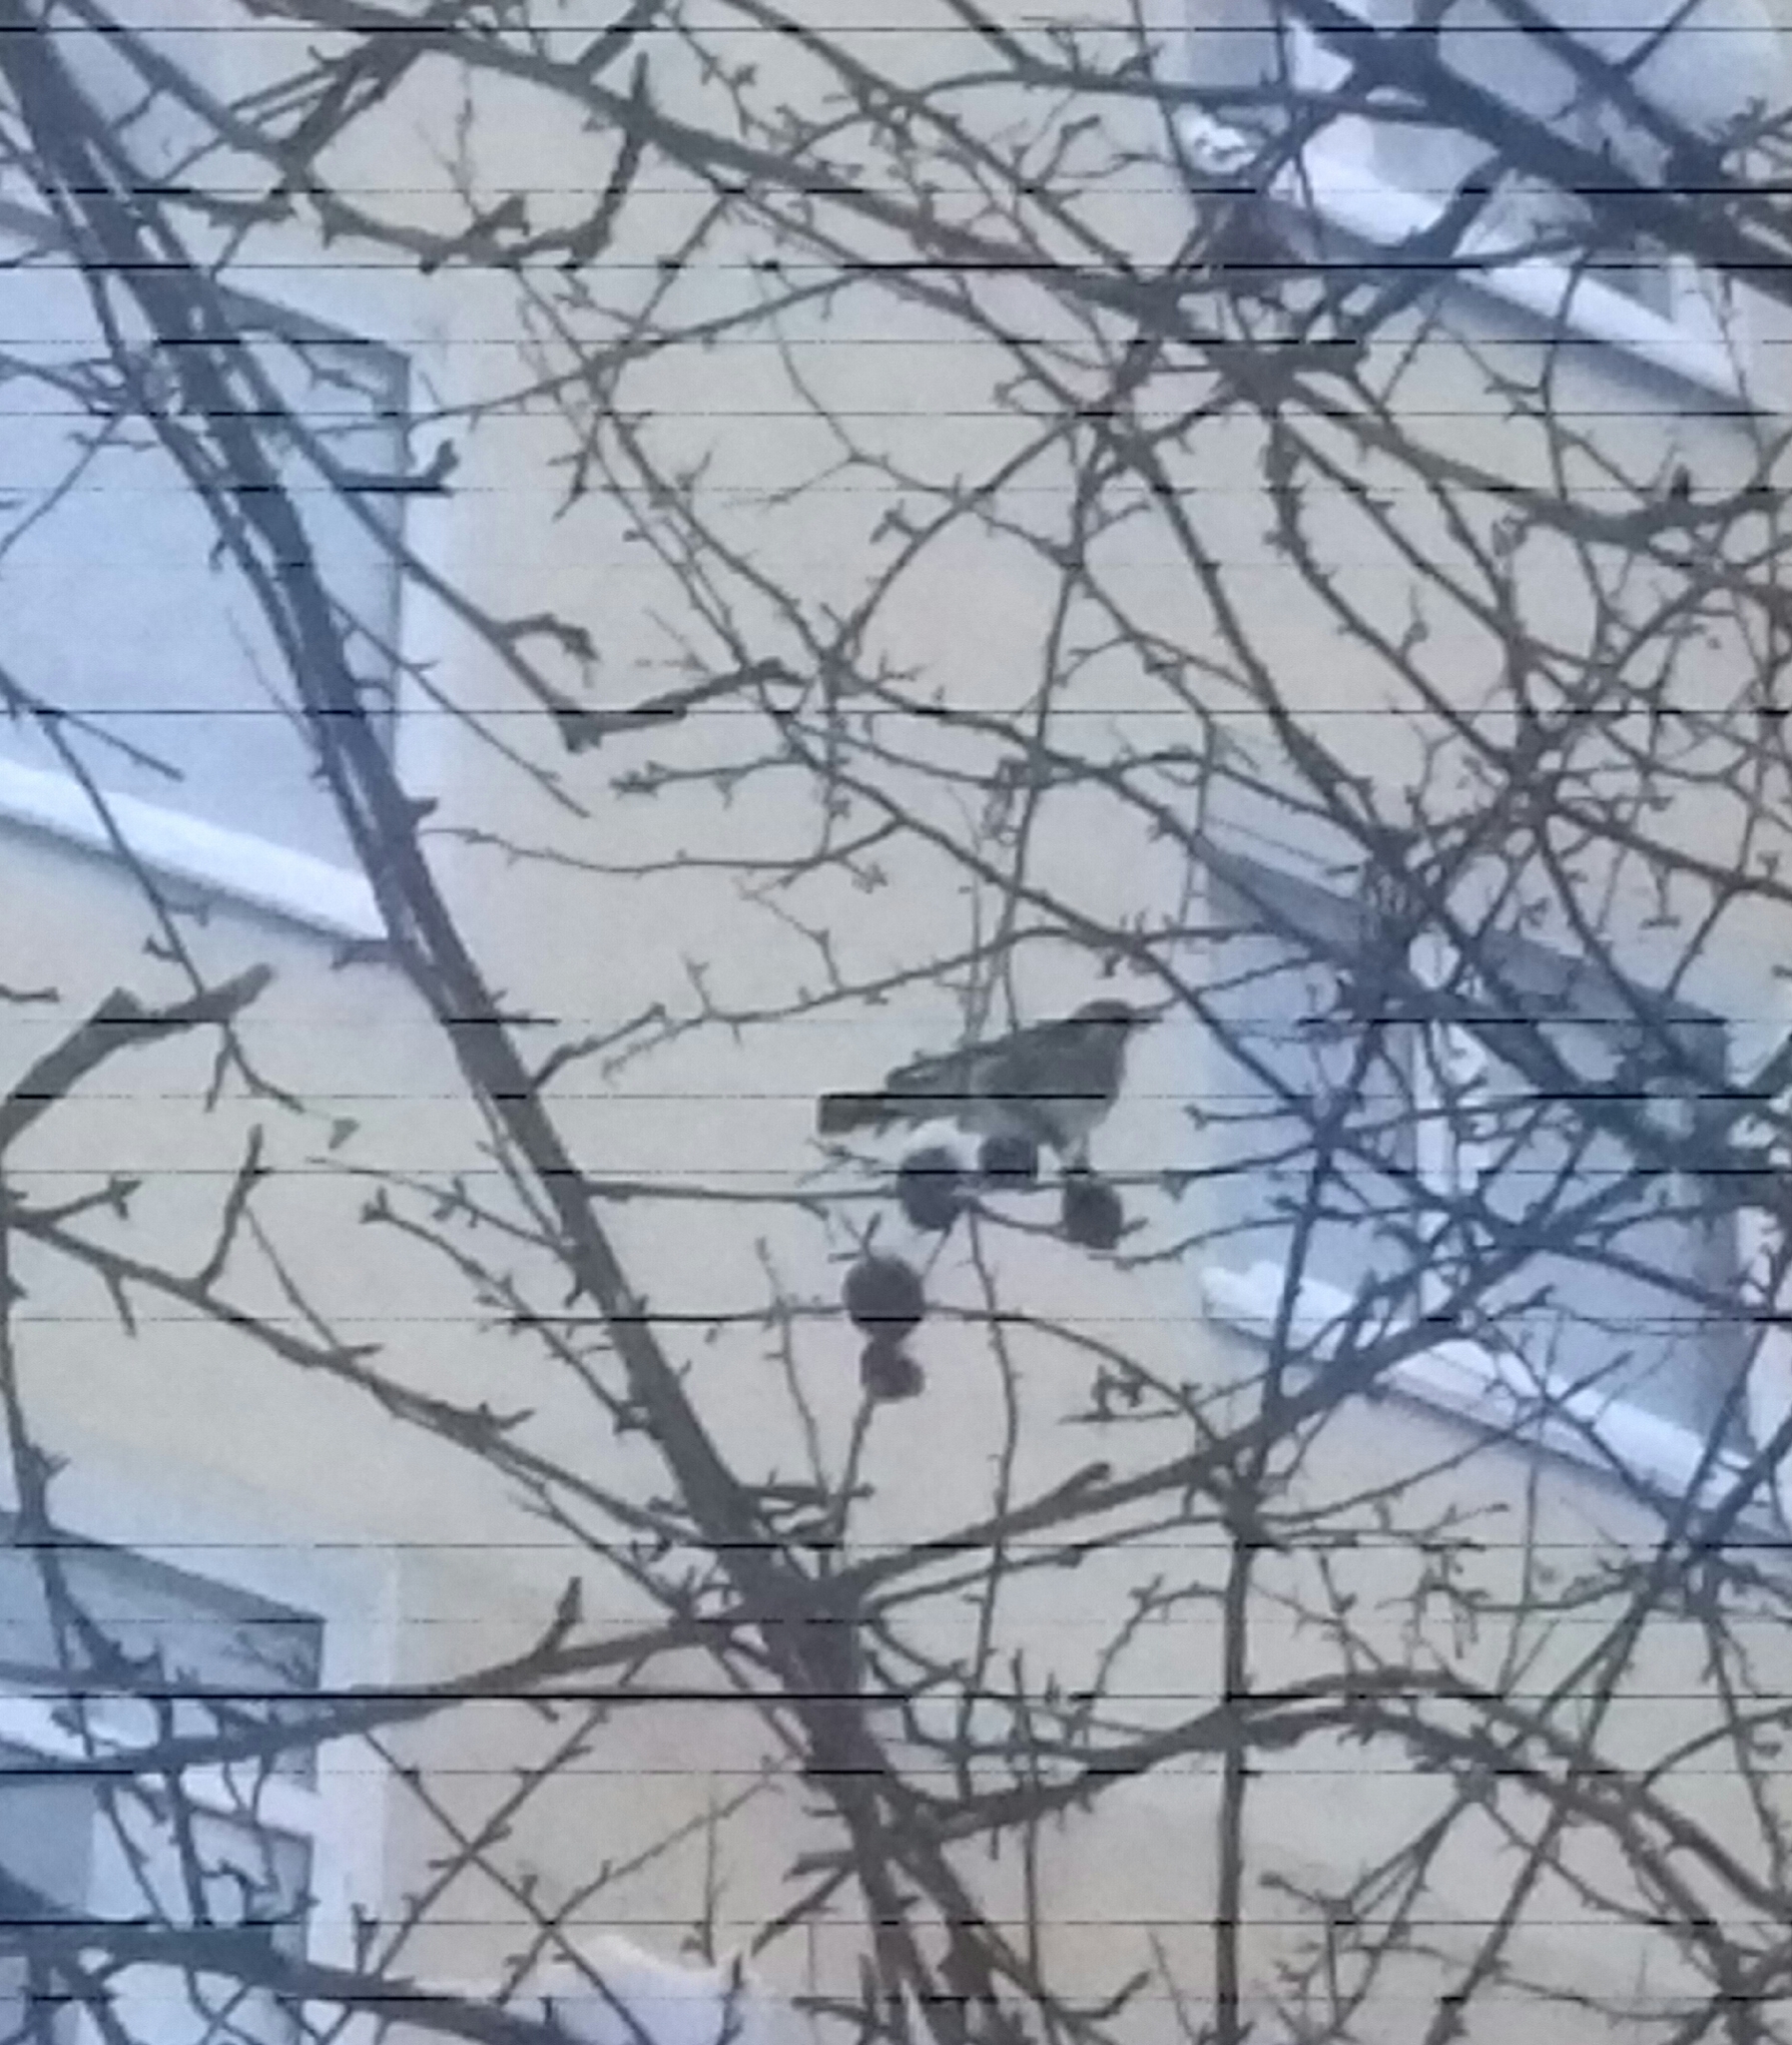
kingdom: Animalia
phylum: Chordata
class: Aves
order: Passeriformes
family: Turdidae
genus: Turdus
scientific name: Turdus pilaris
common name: Fieldfare
